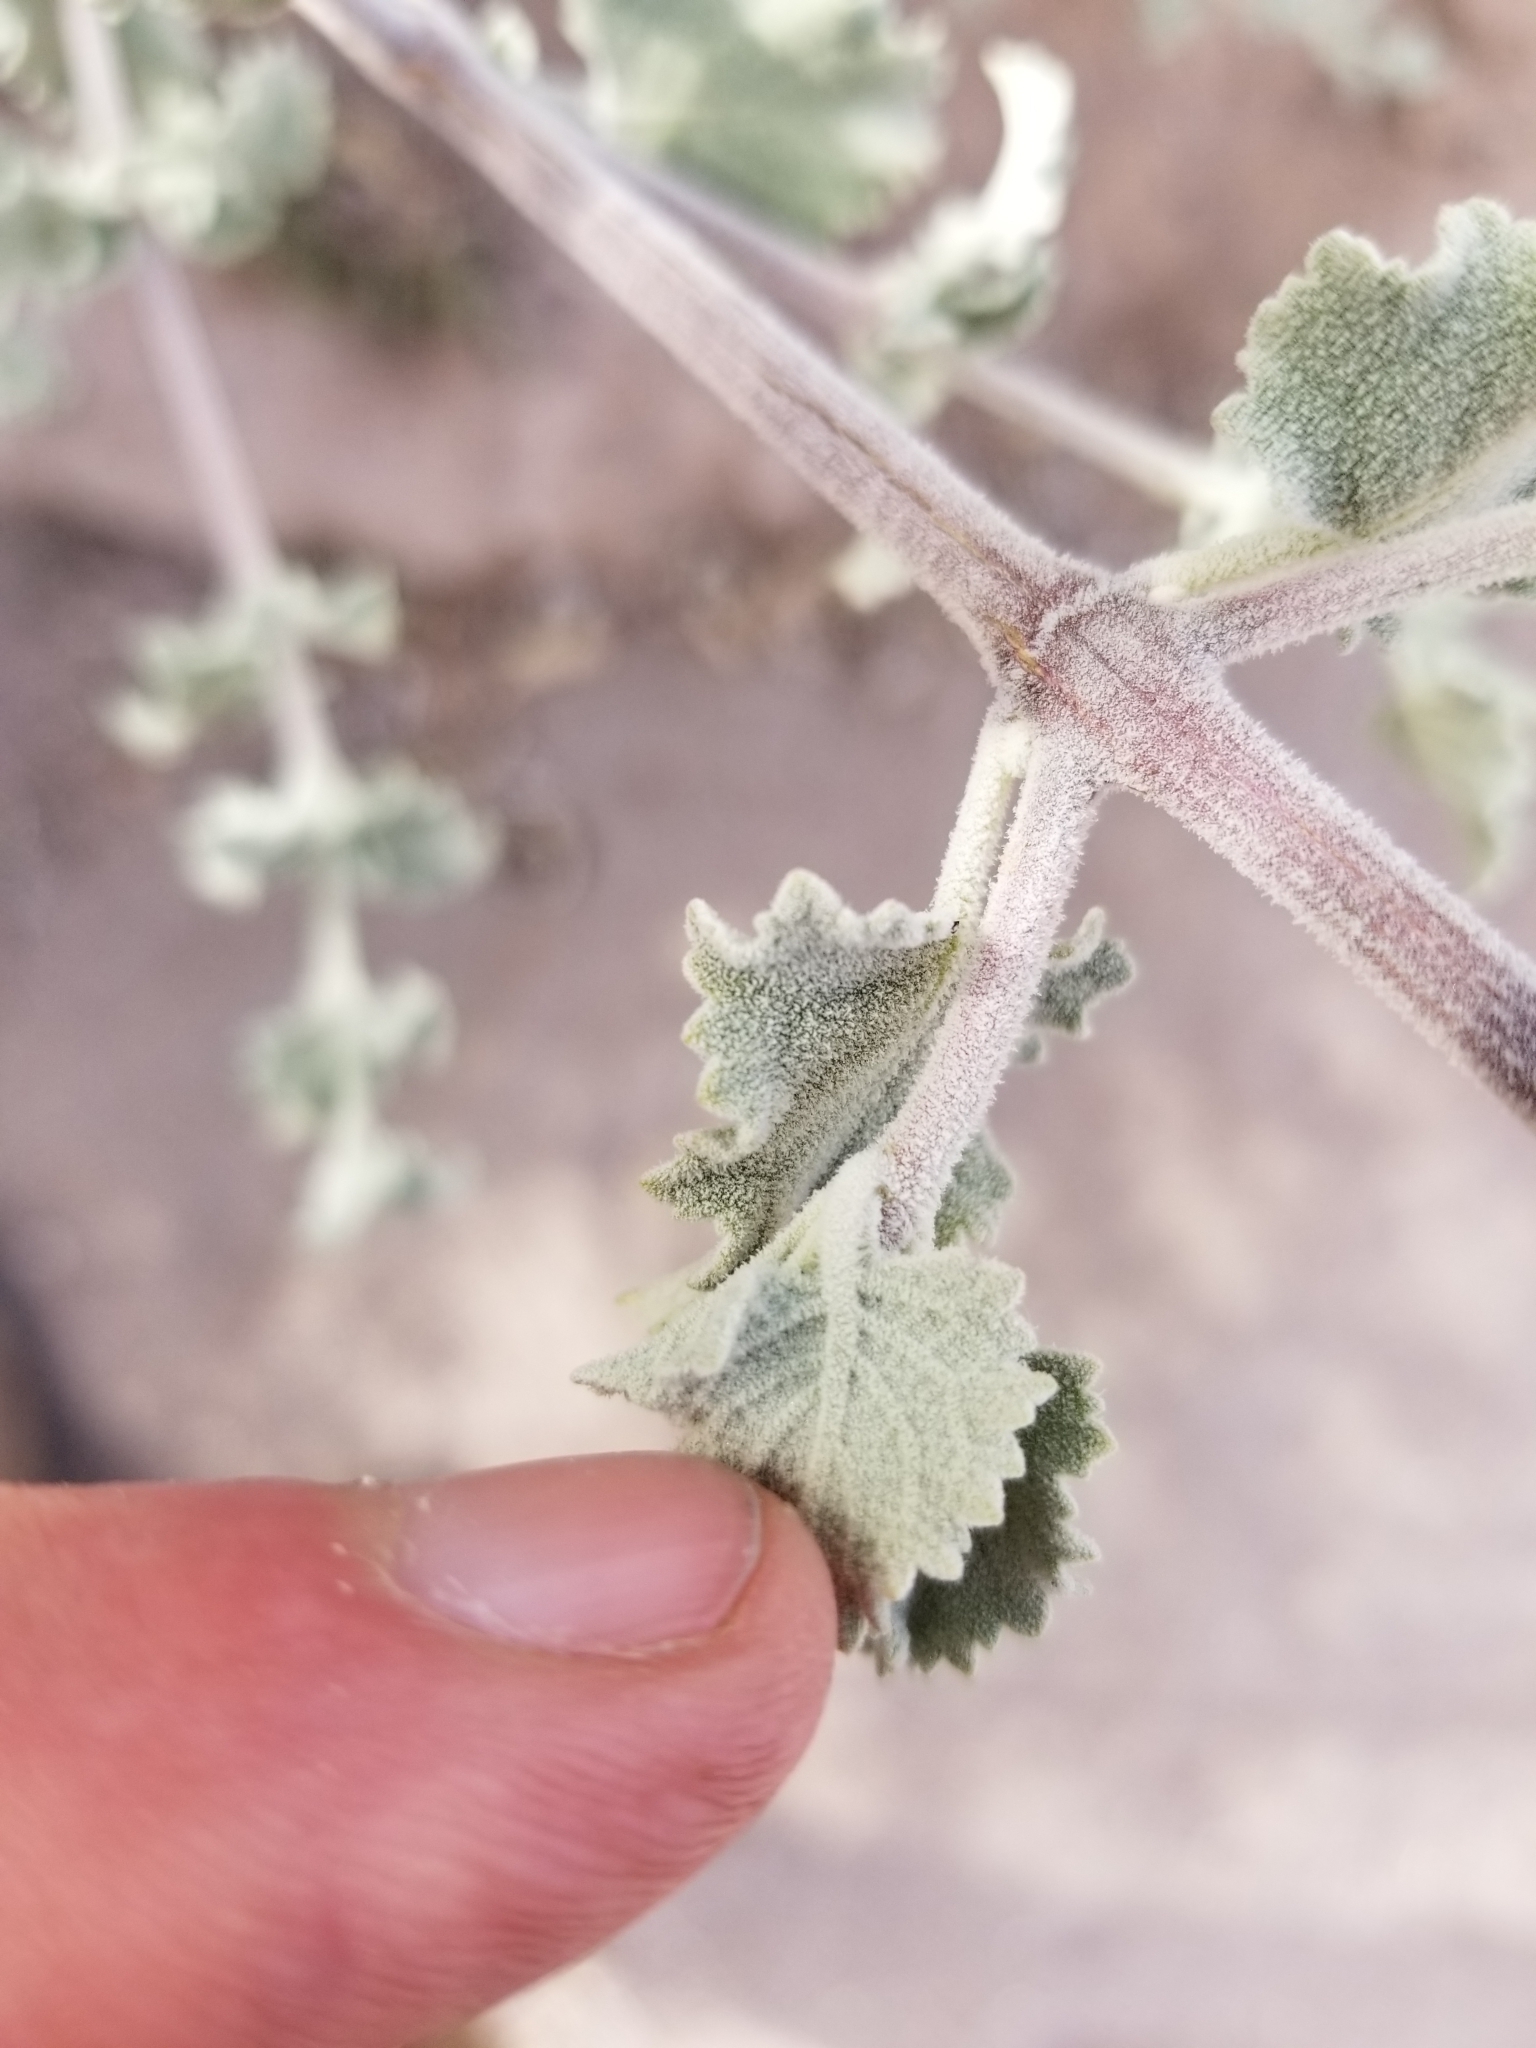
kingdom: Plantae
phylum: Tracheophyta
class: Magnoliopsida
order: Lamiales
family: Lamiaceae
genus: Condea
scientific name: Condea emoryi
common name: Chia
